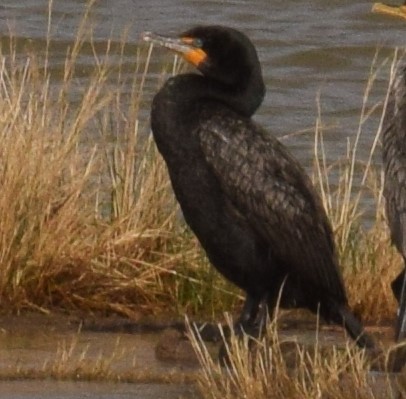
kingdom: Animalia
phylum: Chordata
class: Aves
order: Suliformes
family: Phalacrocoracidae
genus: Phalacrocorax
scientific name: Phalacrocorax auritus
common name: Double-crested cormorant
